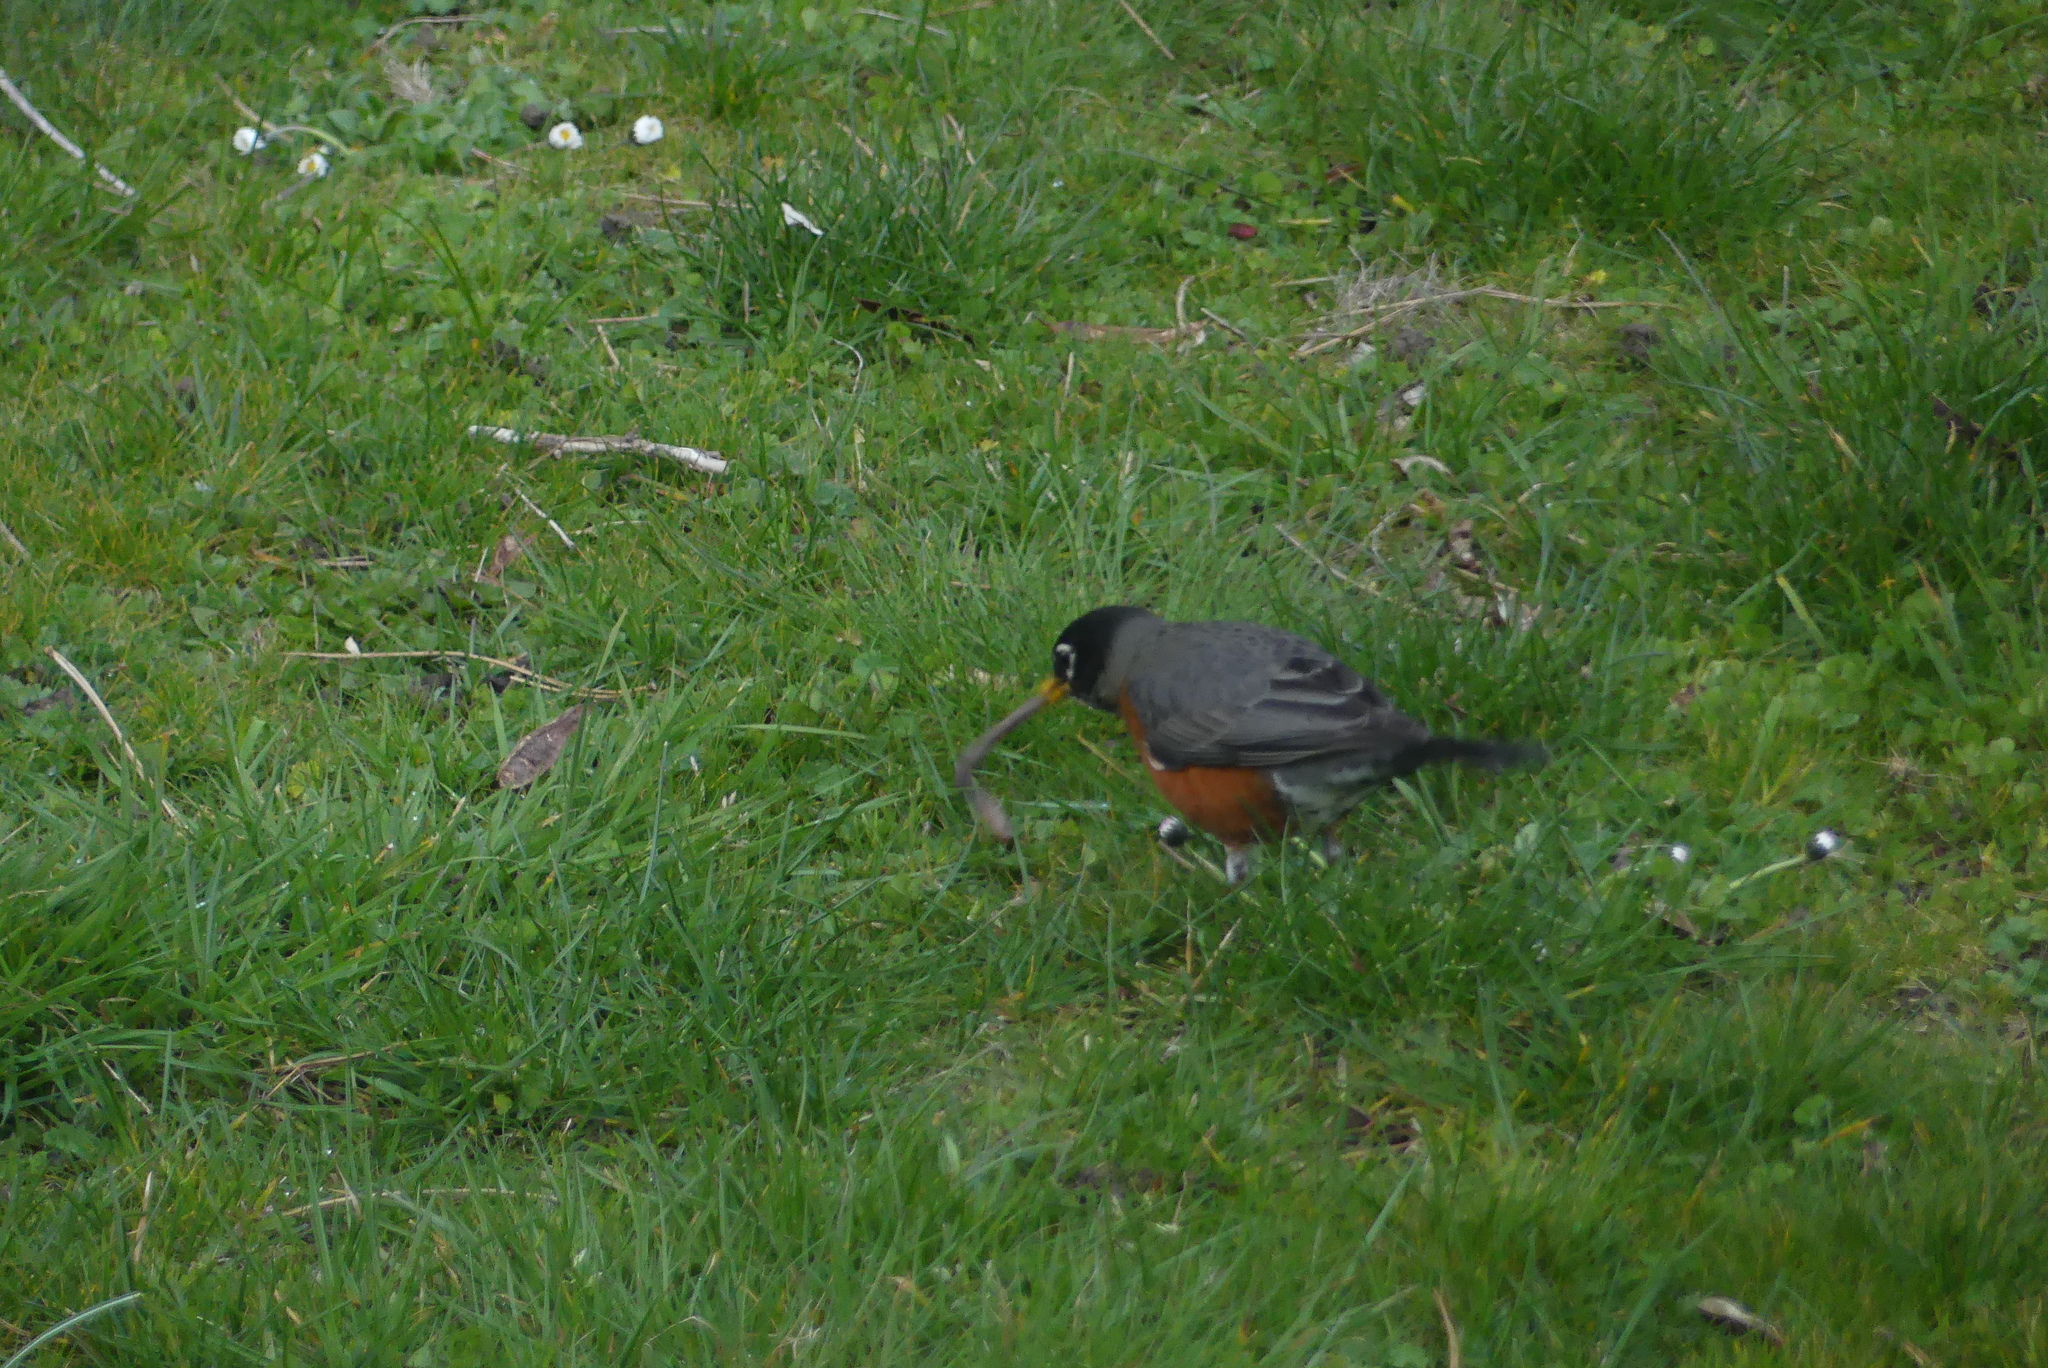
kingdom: Animalia
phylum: Chordata
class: Aves
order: Passeriformes
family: Turdidae
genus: Turdus
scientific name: Turdus migratorius
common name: American robin
